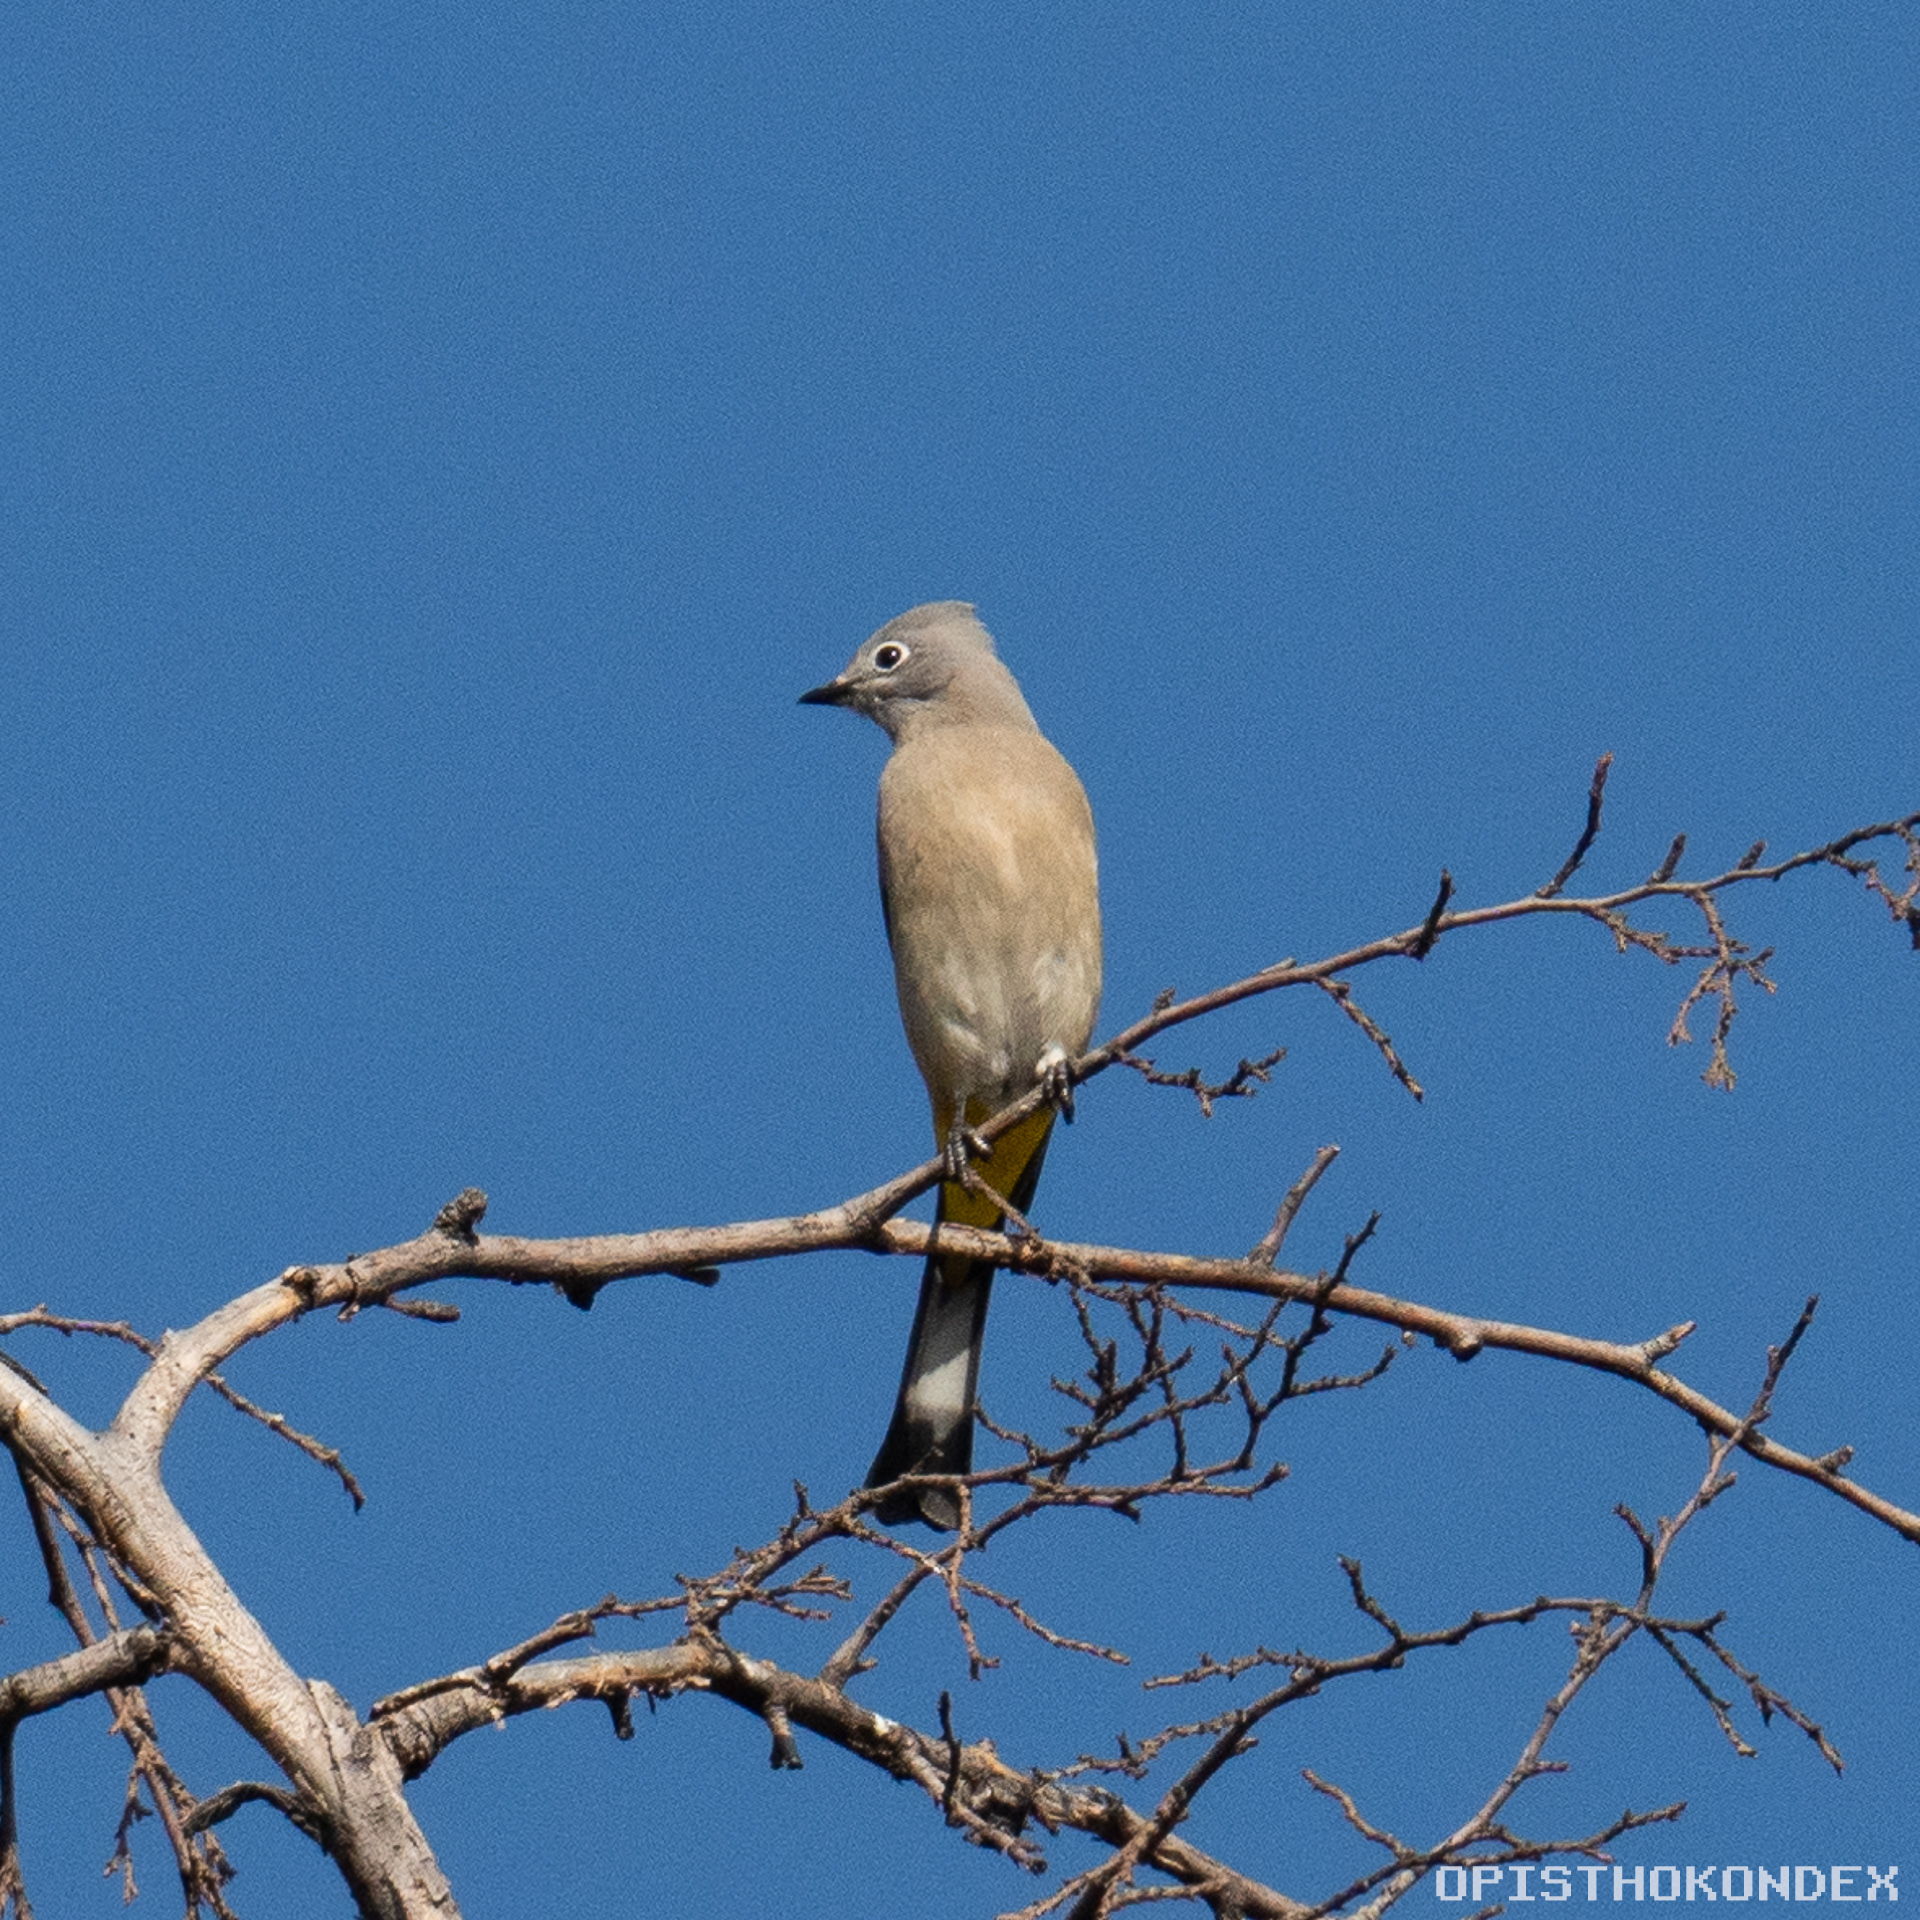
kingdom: Animalia
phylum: Chordata
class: Aves
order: Passeriformes
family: Ptilogonatidae
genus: Ptilogonys
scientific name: Ptilogonys cinereus
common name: Gray silky-flycatcher
